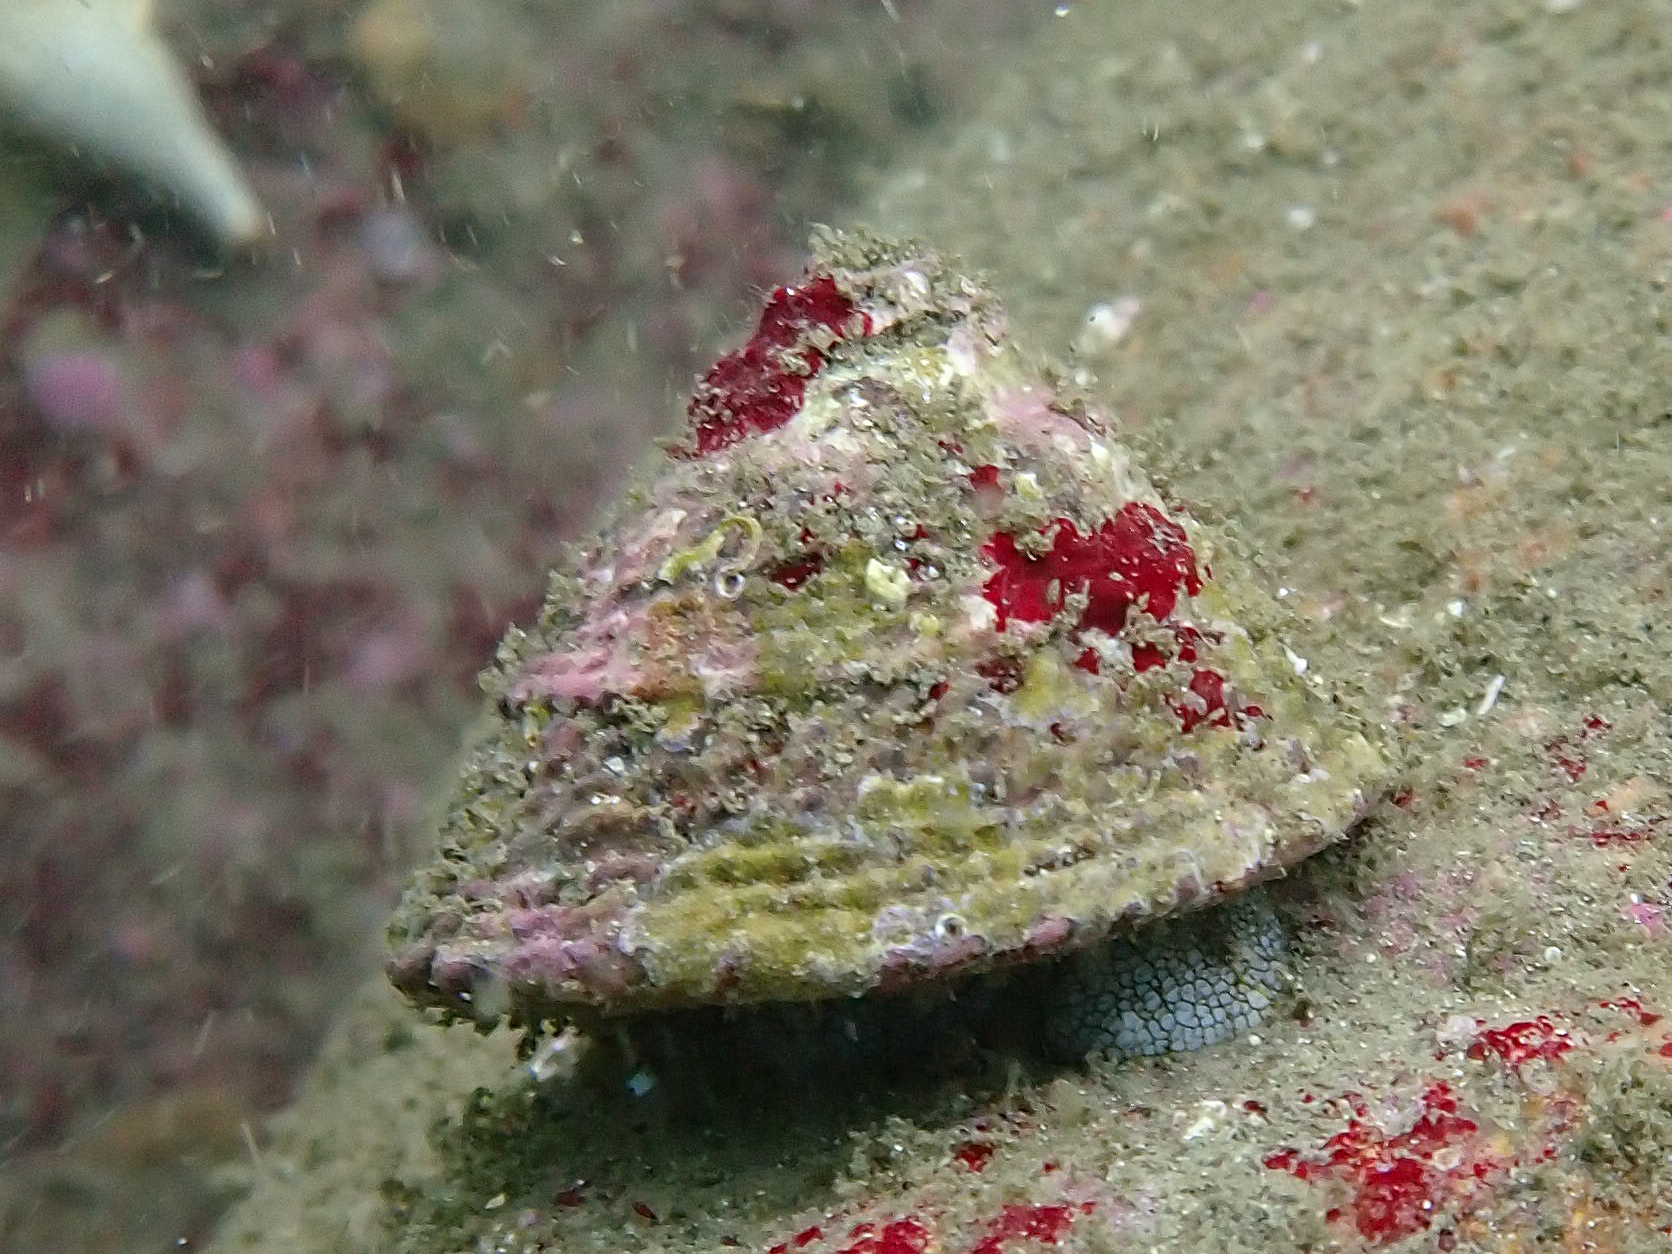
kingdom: Animalia
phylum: Mollusca
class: Gastropoda
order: Trochida
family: Turbinidae
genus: Pomaulax
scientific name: Pomaulax gibberosus
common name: Red turban
